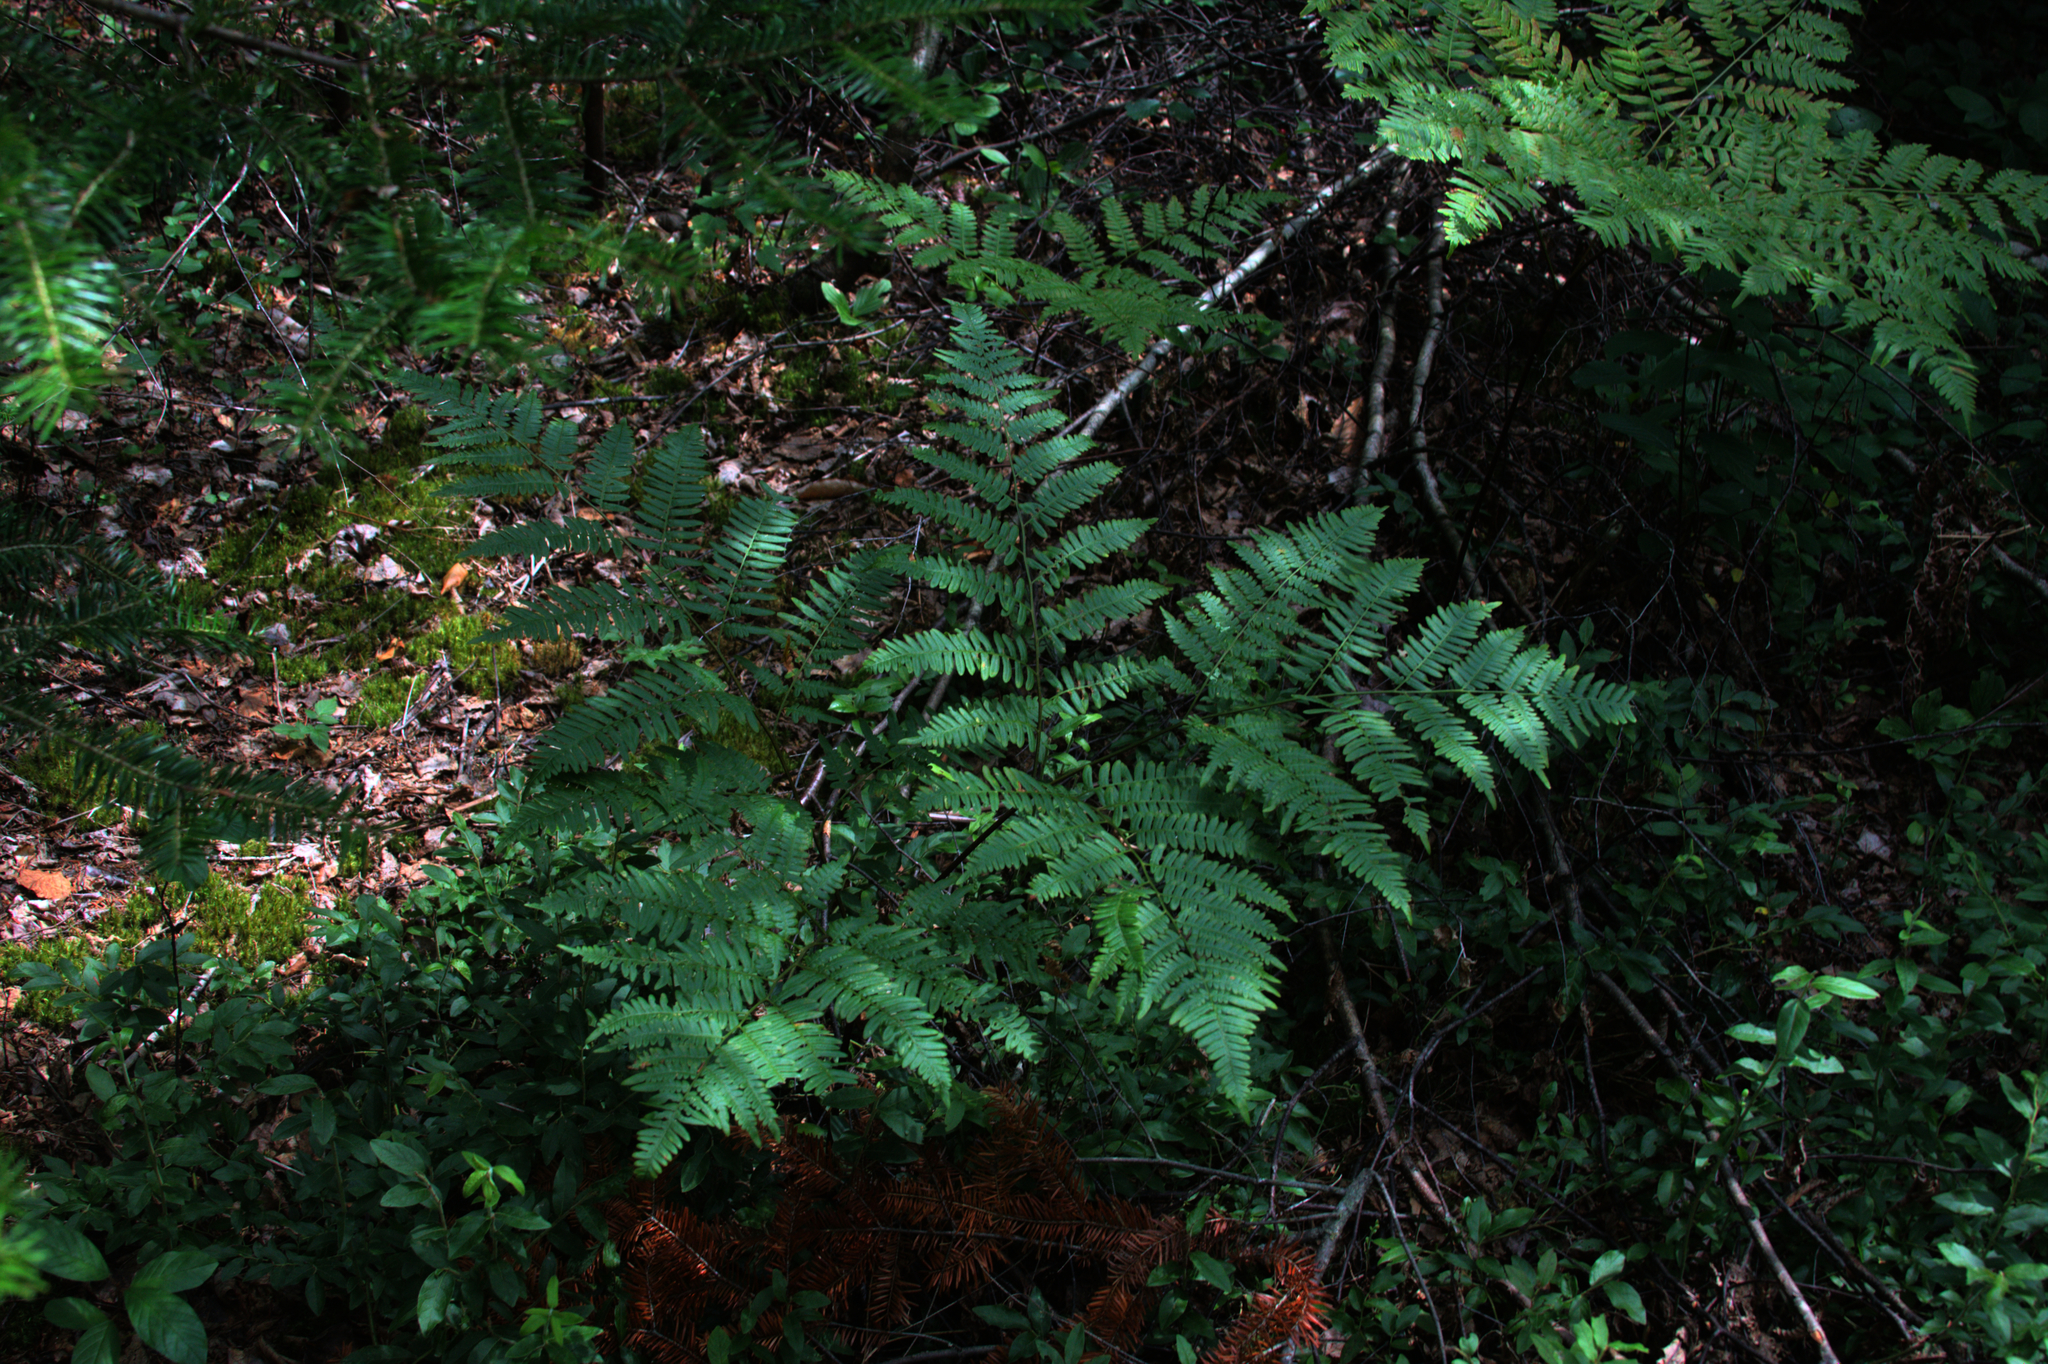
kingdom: Plantae
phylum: Tracheophyta
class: Polypodiopsida
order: Polypodiales
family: Dennstaedtiaceae
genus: Pteridium
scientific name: Pteridium aquilinum
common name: Bracken
